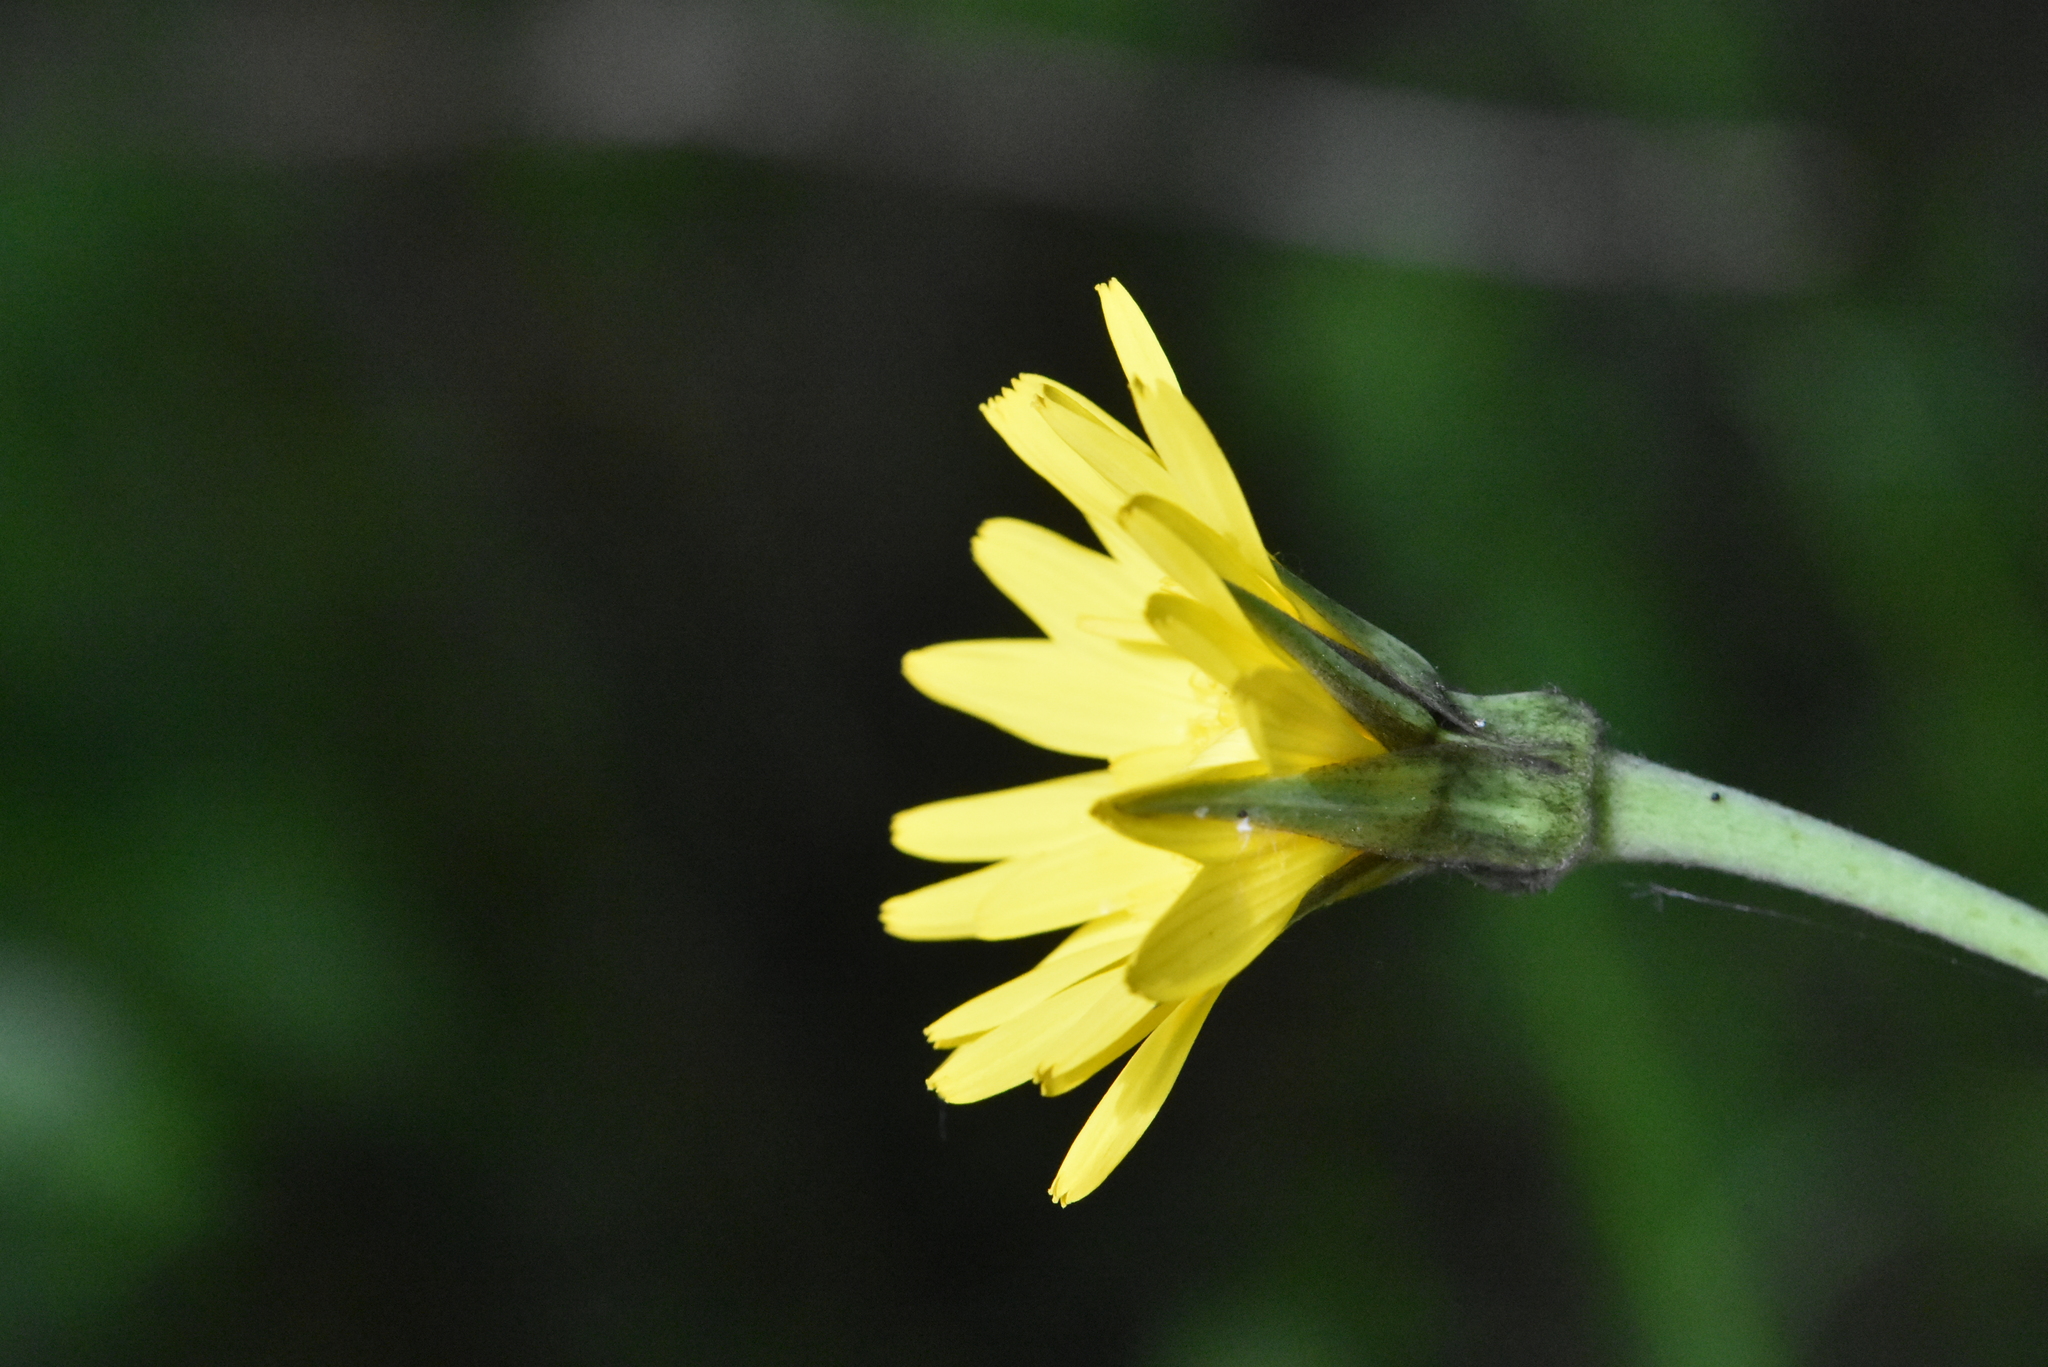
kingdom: Plantae
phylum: Tracheophyta
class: Magnoliopsida
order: Asterales
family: Asteraceae
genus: Tragopogon
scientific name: Tragopogon pratensis
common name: Goat's-beard
